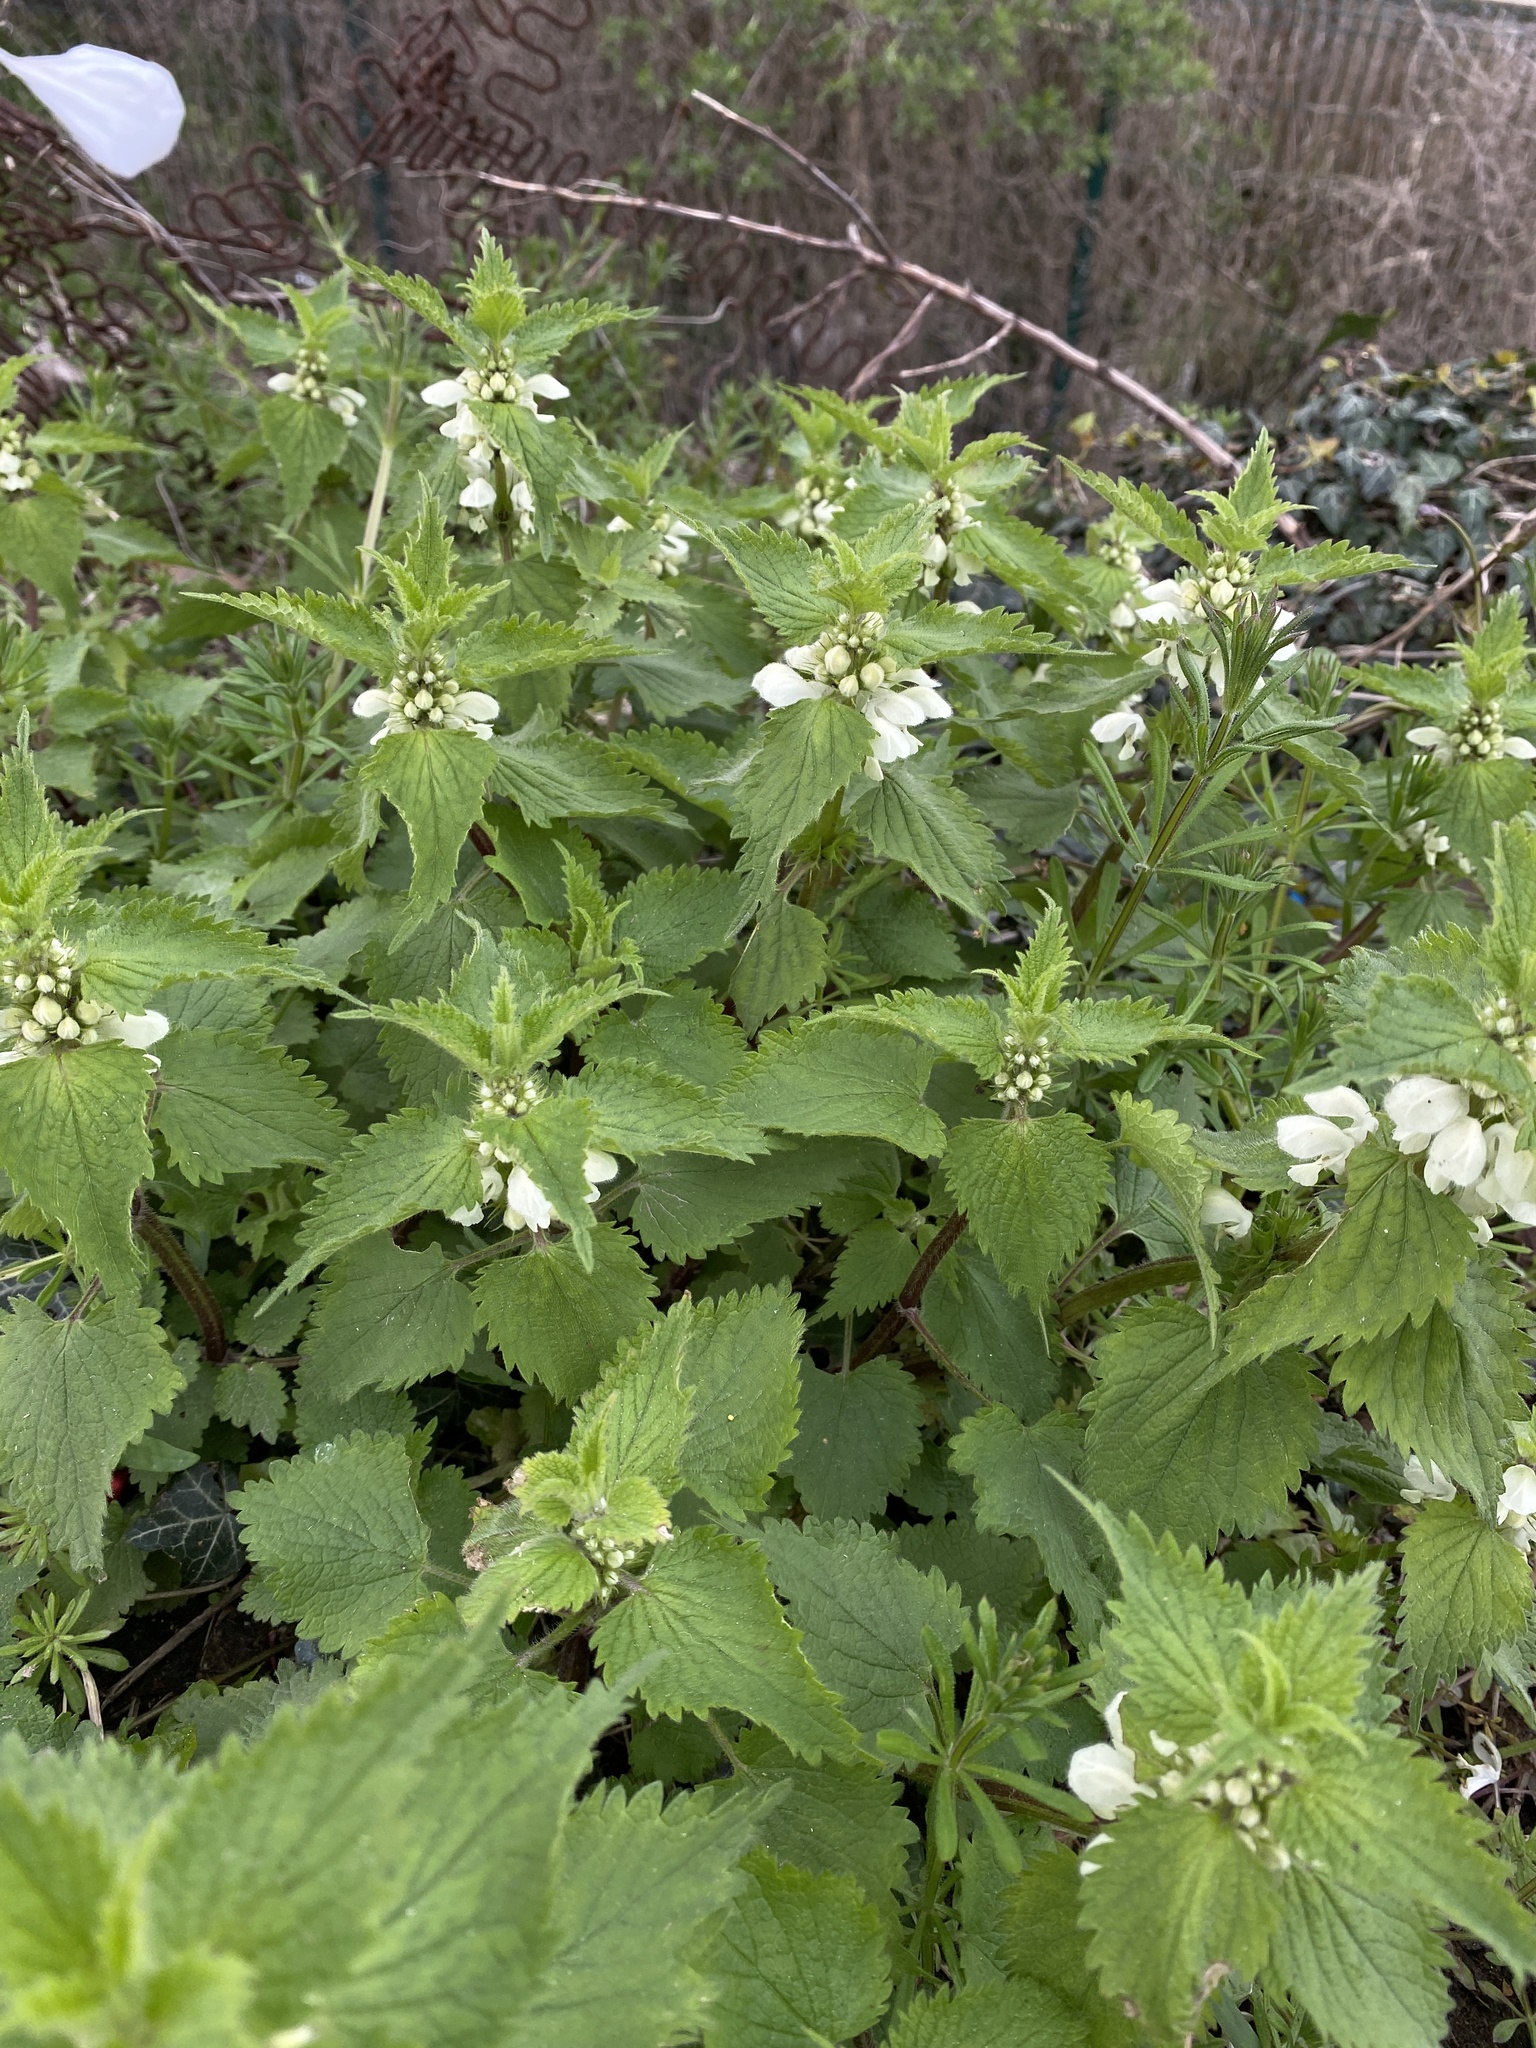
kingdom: Plantae
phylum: Tracheophyta
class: Magnoliopsida
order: Lamiales
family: Lamiaceae
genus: Lamium
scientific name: Lamium album
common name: White dead-nettle
